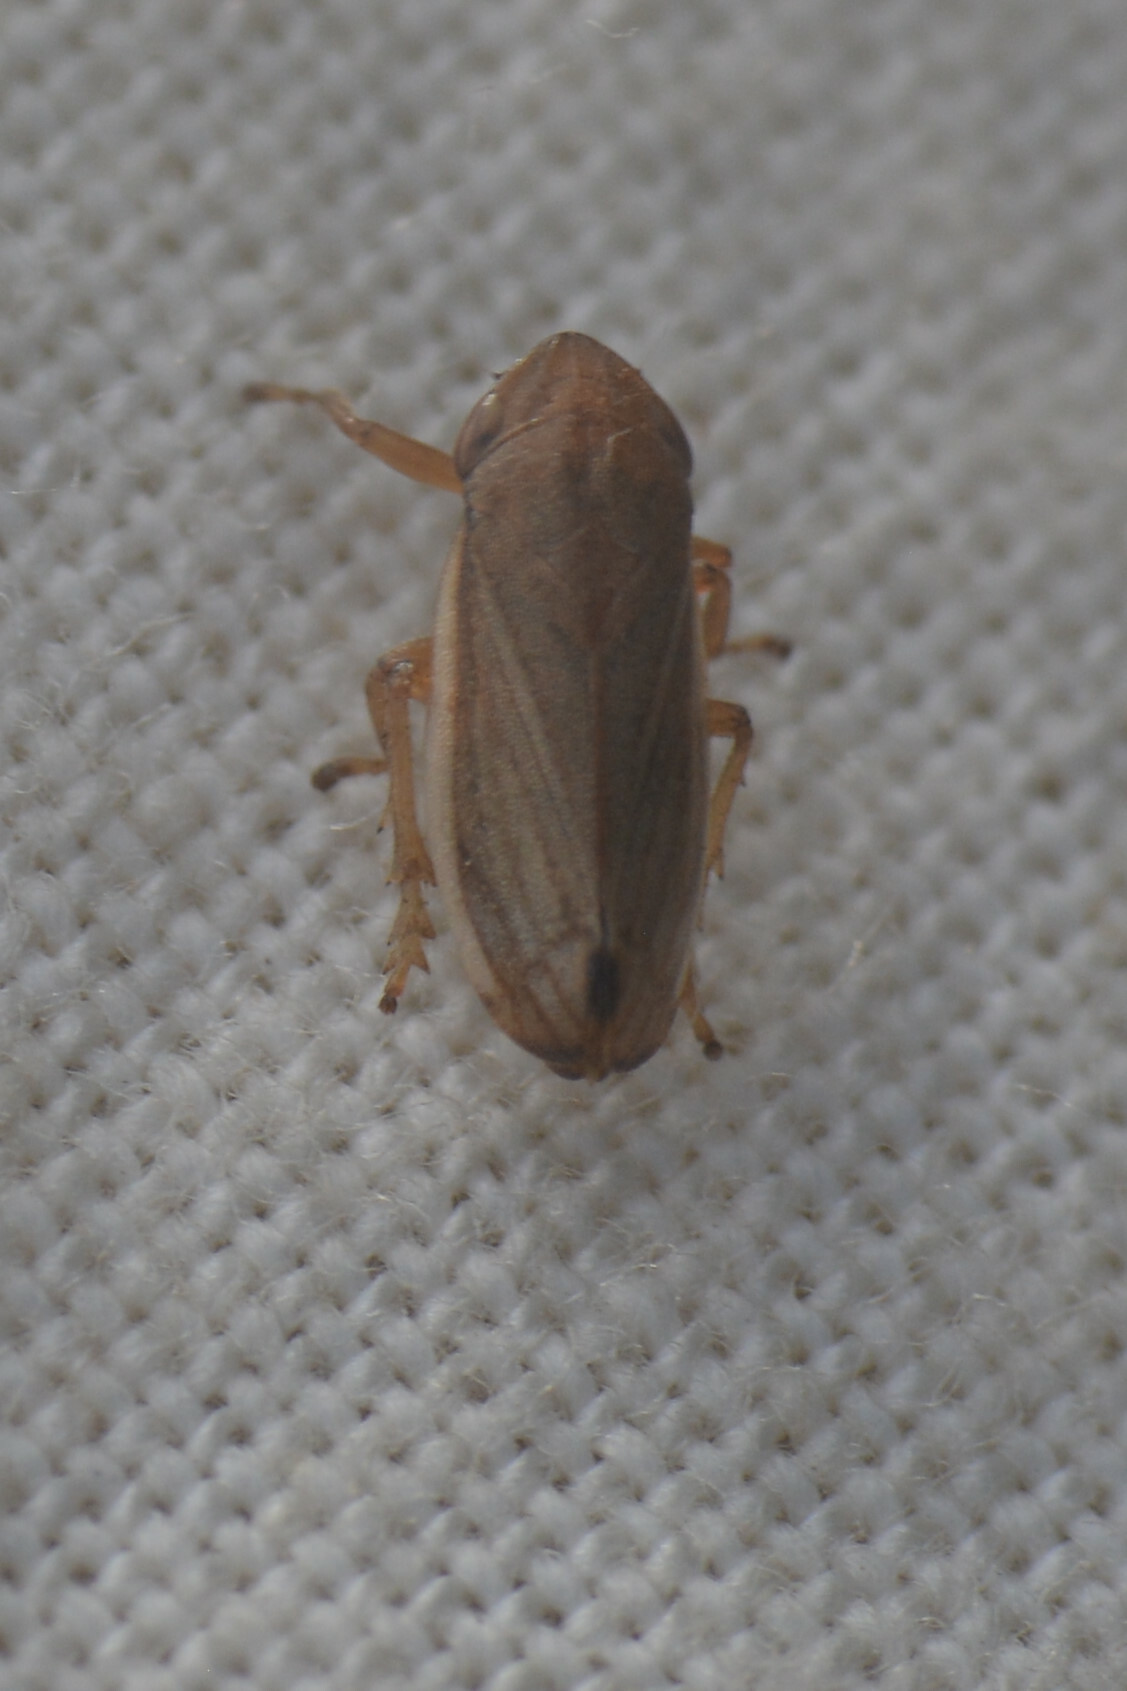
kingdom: Animalia
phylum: Arthropoda
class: Insecta
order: Hemiptera
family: Aphrophoridae
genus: Neophilaenus
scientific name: Neophilaenus lineatus
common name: Spittlebug
